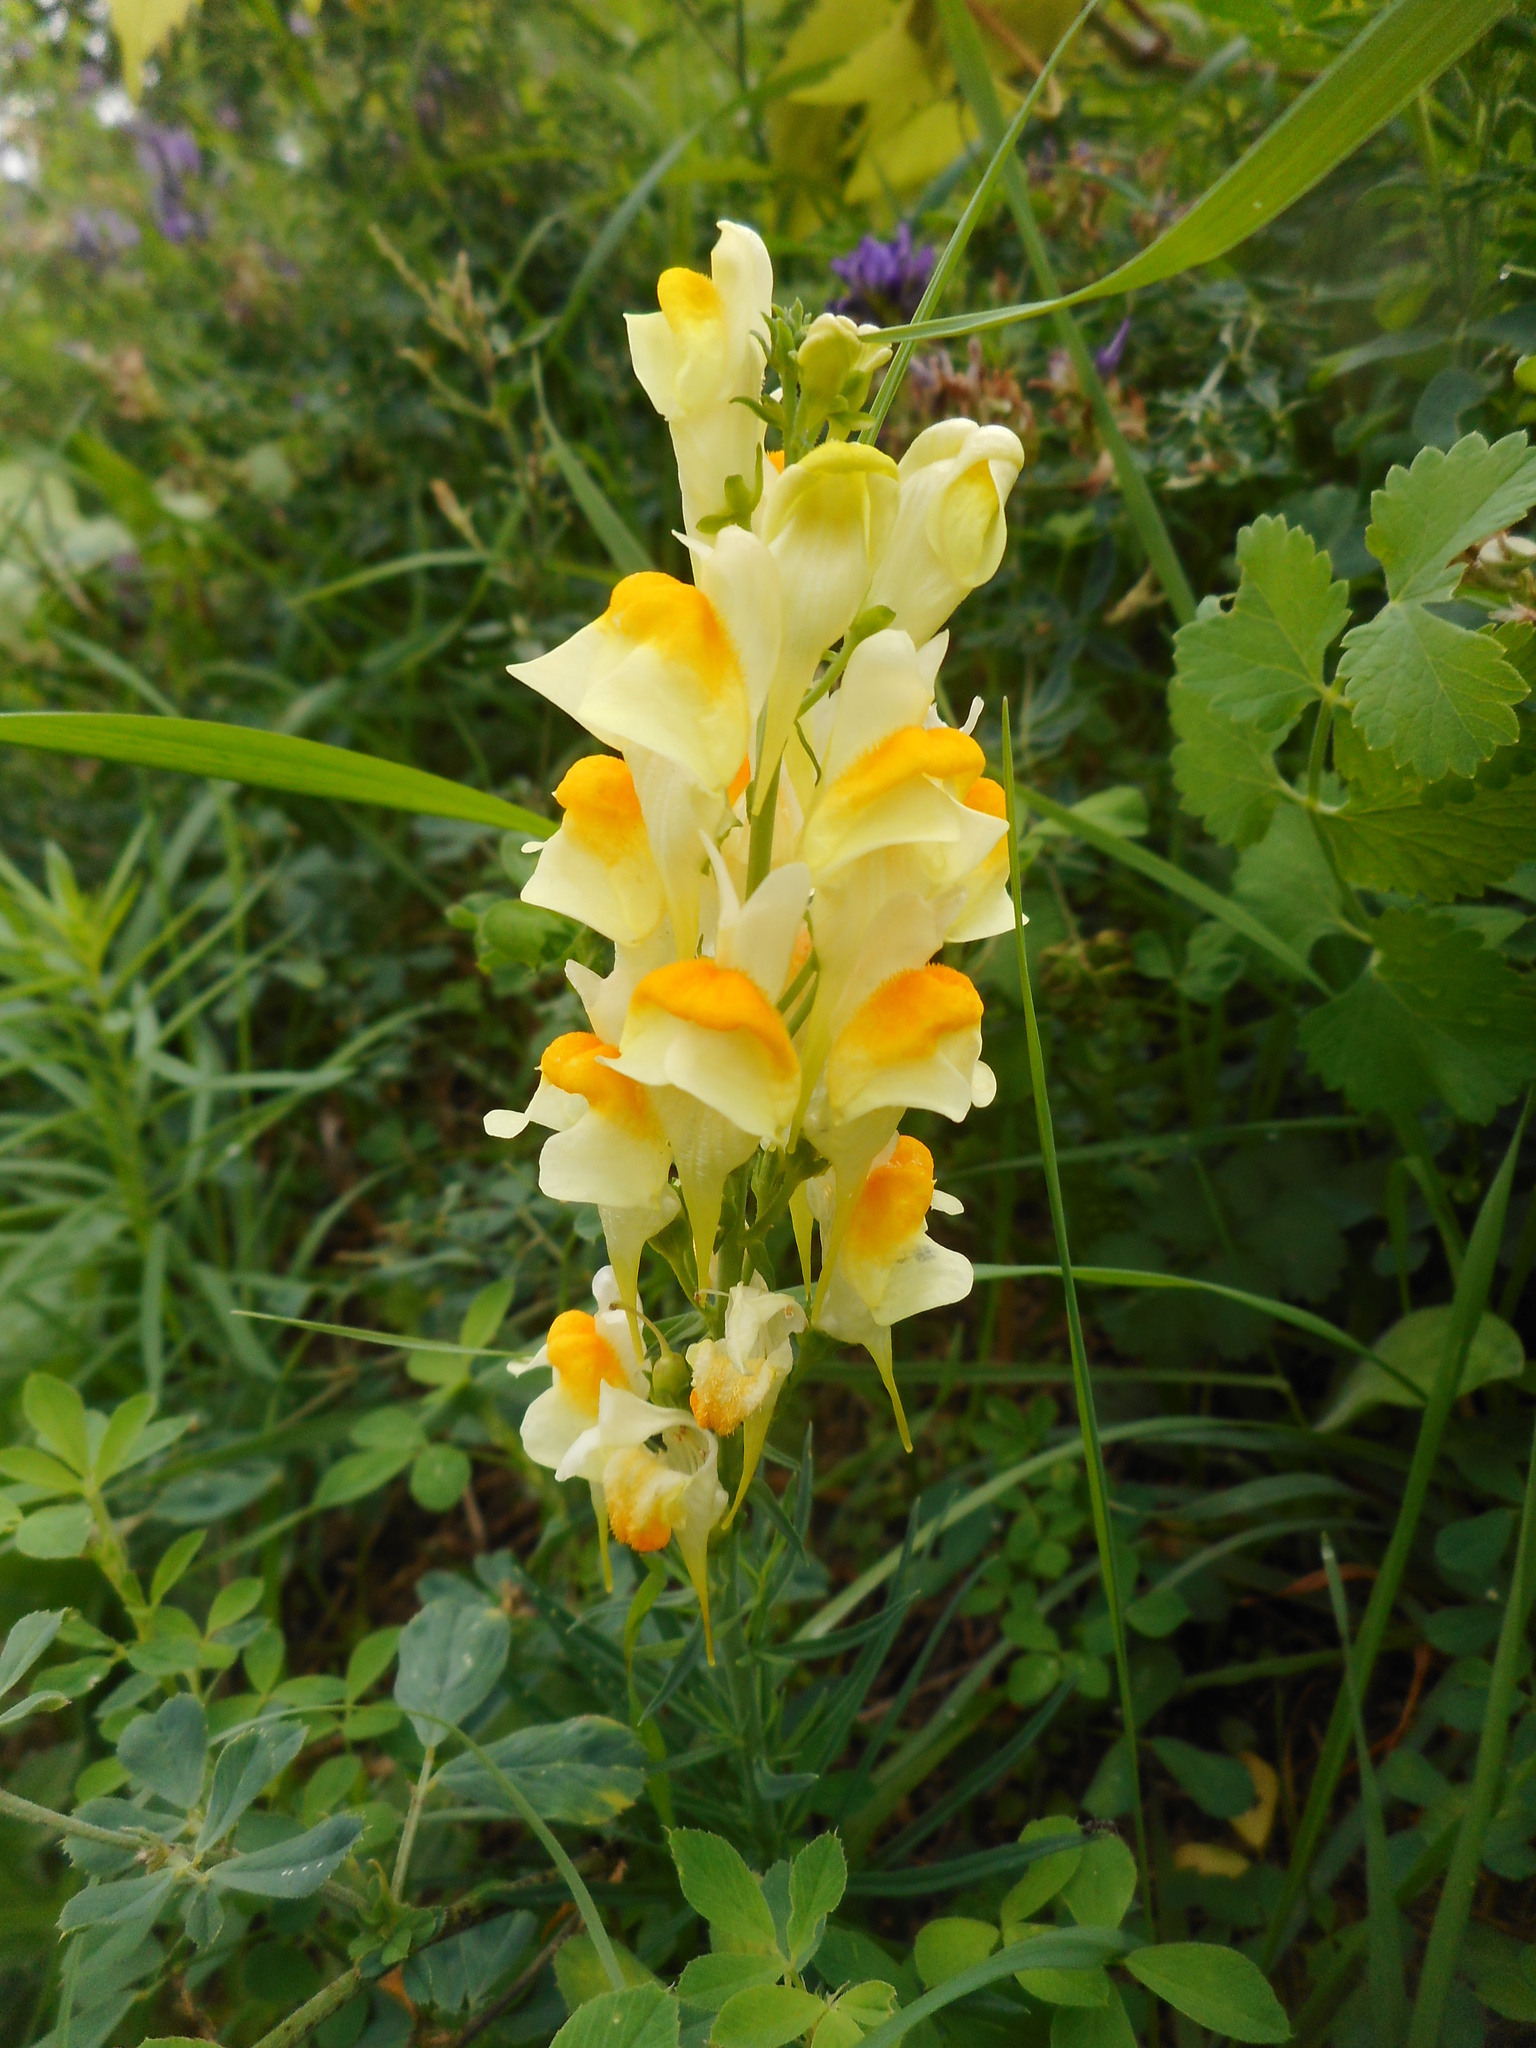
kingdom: Plantae
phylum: Tracheophyta
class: Magnoliopsida
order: Lamiales
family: Plantaginaceae
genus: Linaria
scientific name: Linaria vulgaris
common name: Butter and eggs
